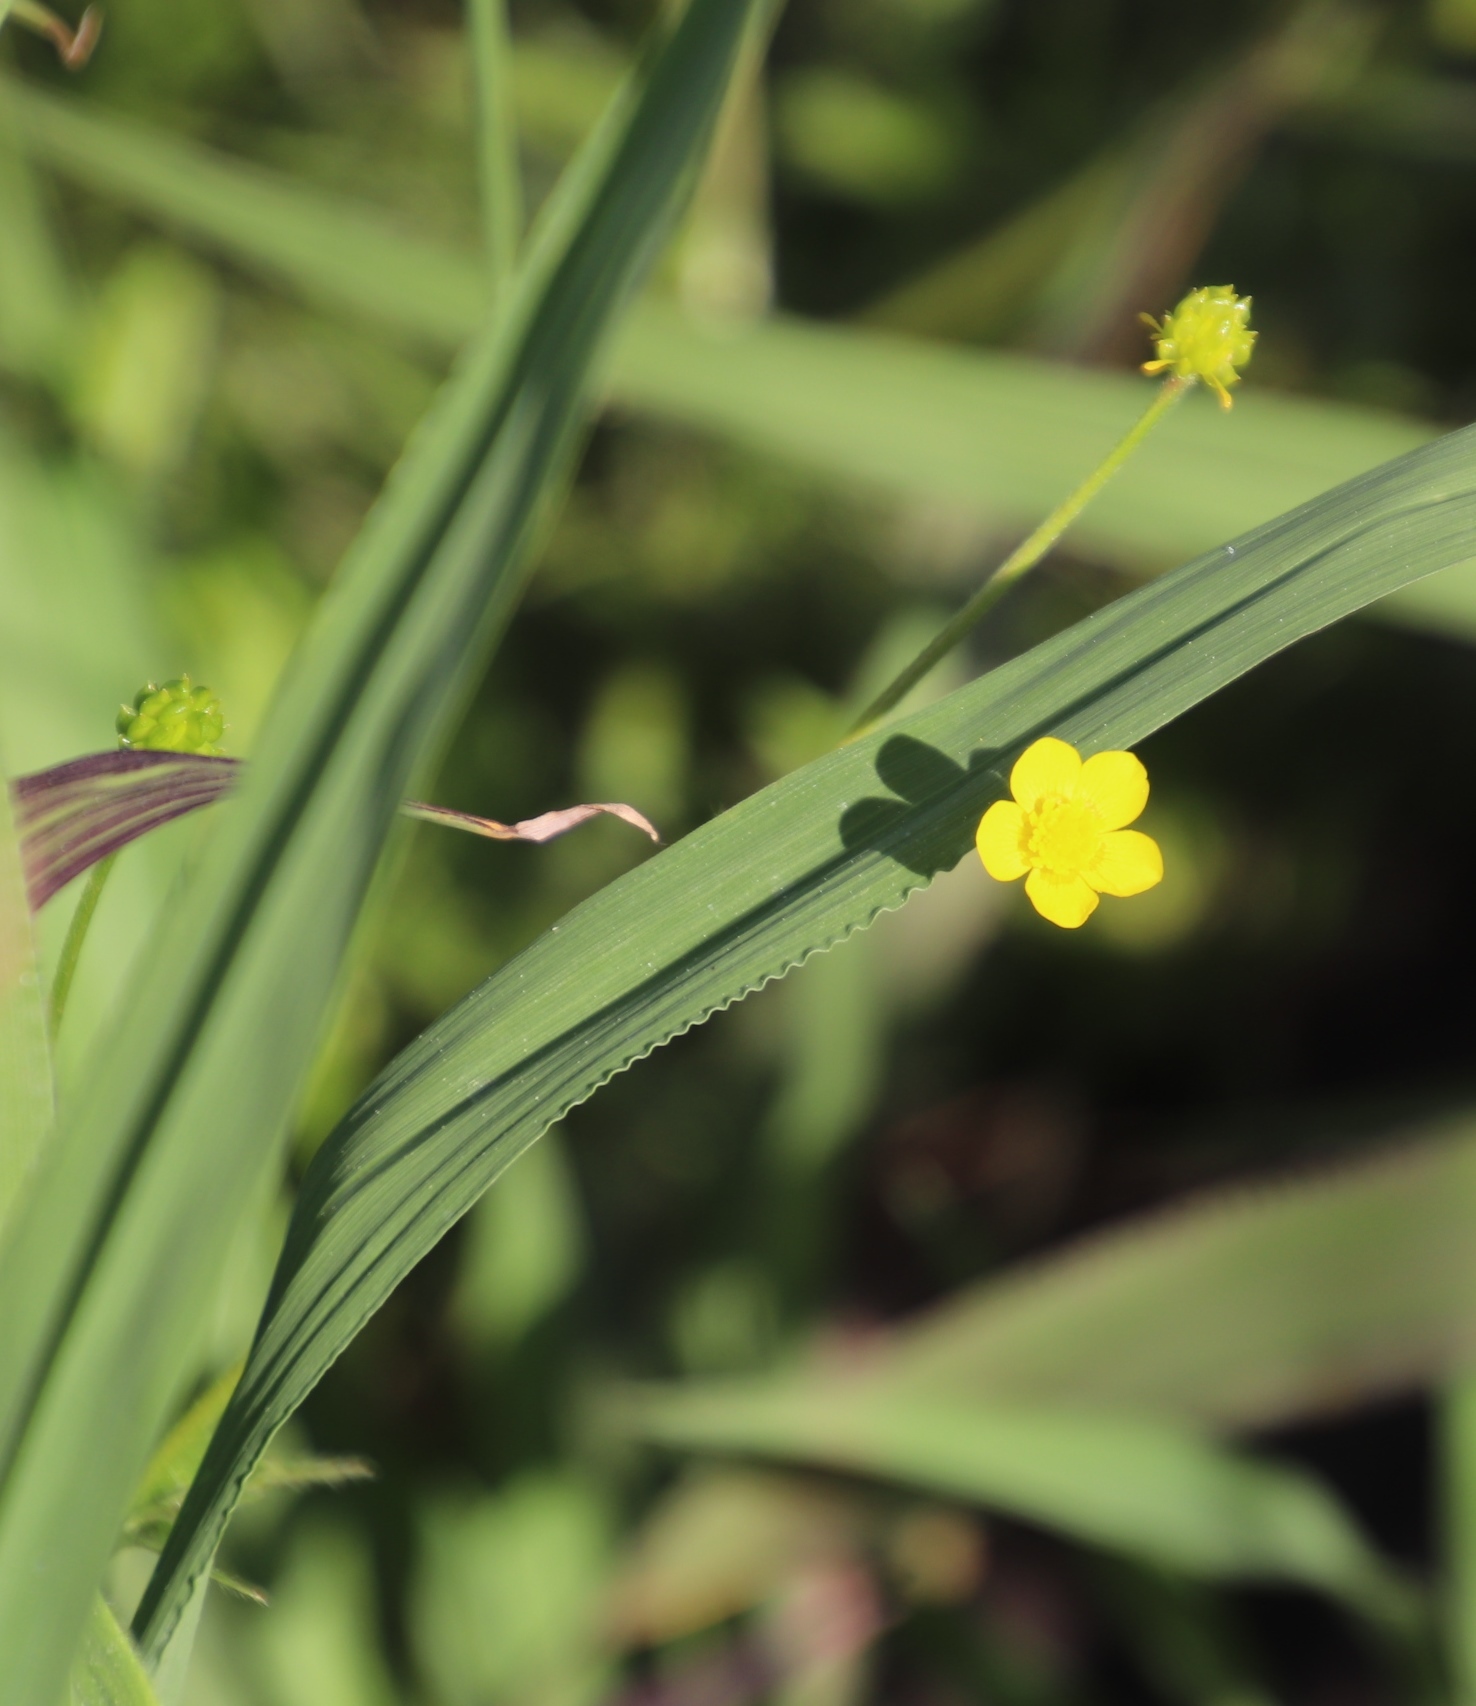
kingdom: Plantae
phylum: Tracheophyta
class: Magnoliopsida
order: Ranunculales
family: Ranunculaceae
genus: Ranunculus
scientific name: Ranunculus multifidus
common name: Wild buttercup
